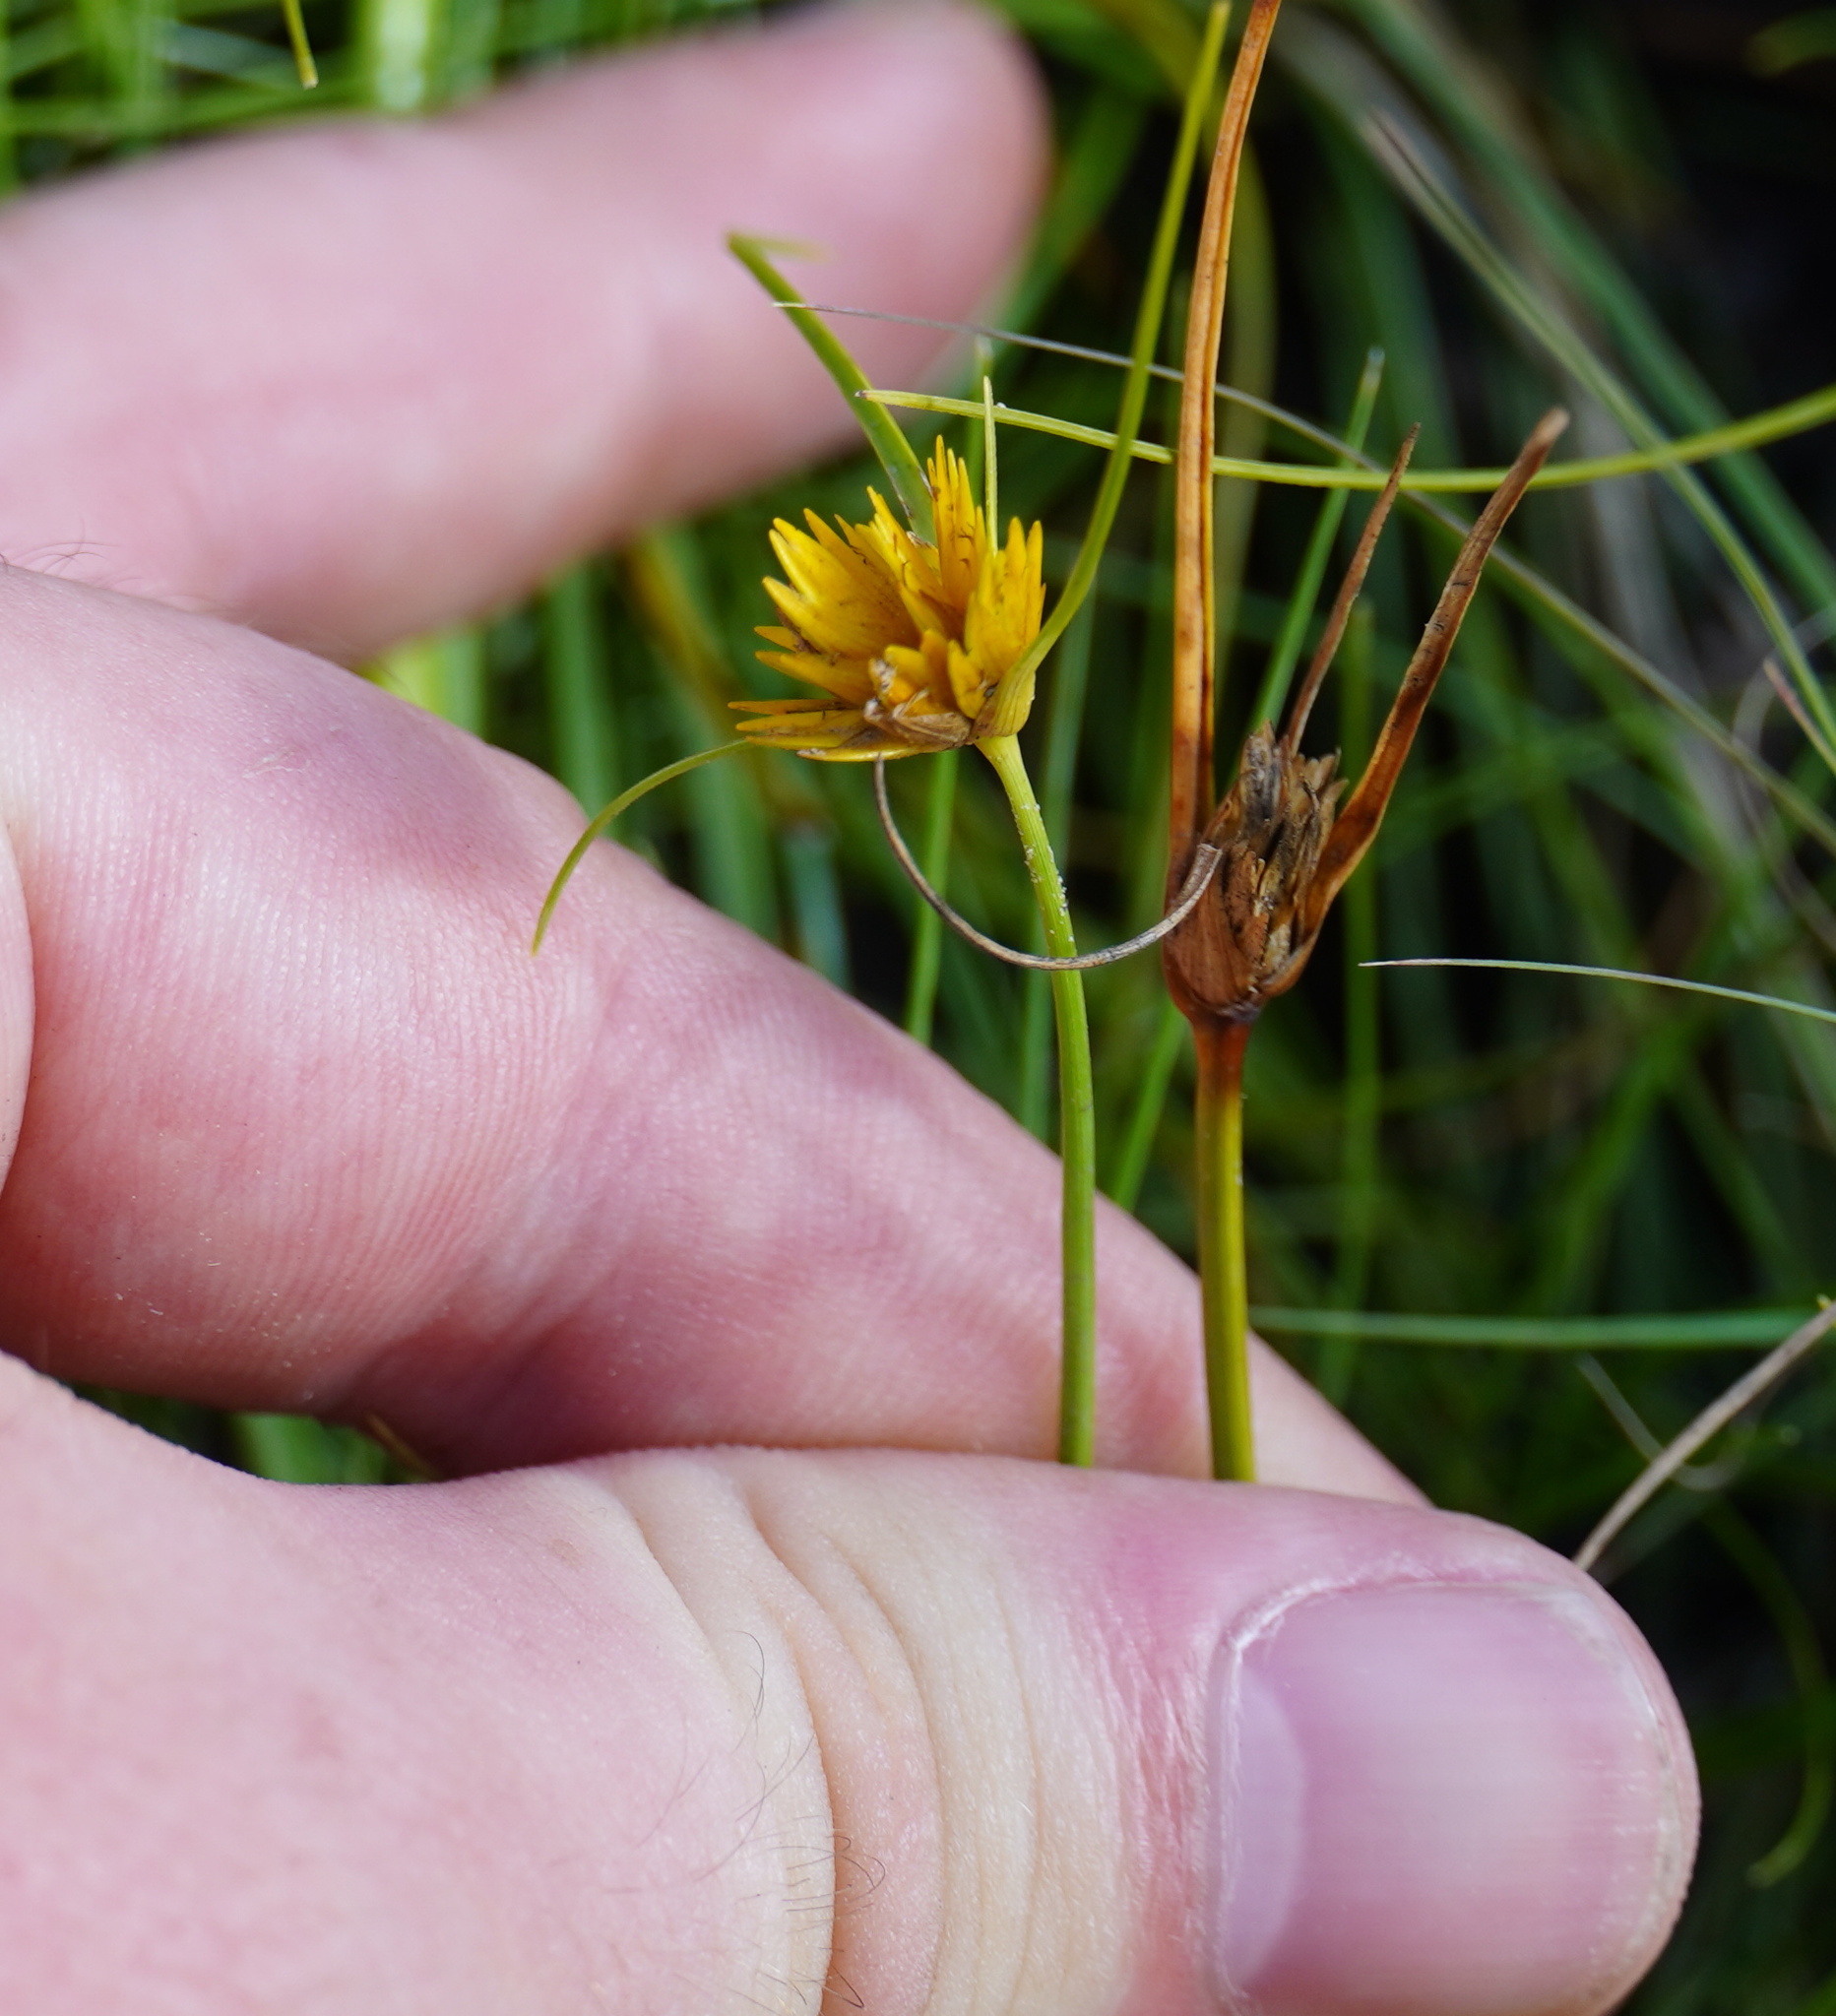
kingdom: Plantae
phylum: Tracheophyta
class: Liliopsida
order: Poales
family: Cyperaceae
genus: Cyperus
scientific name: Cyperus sphaerocephalus
